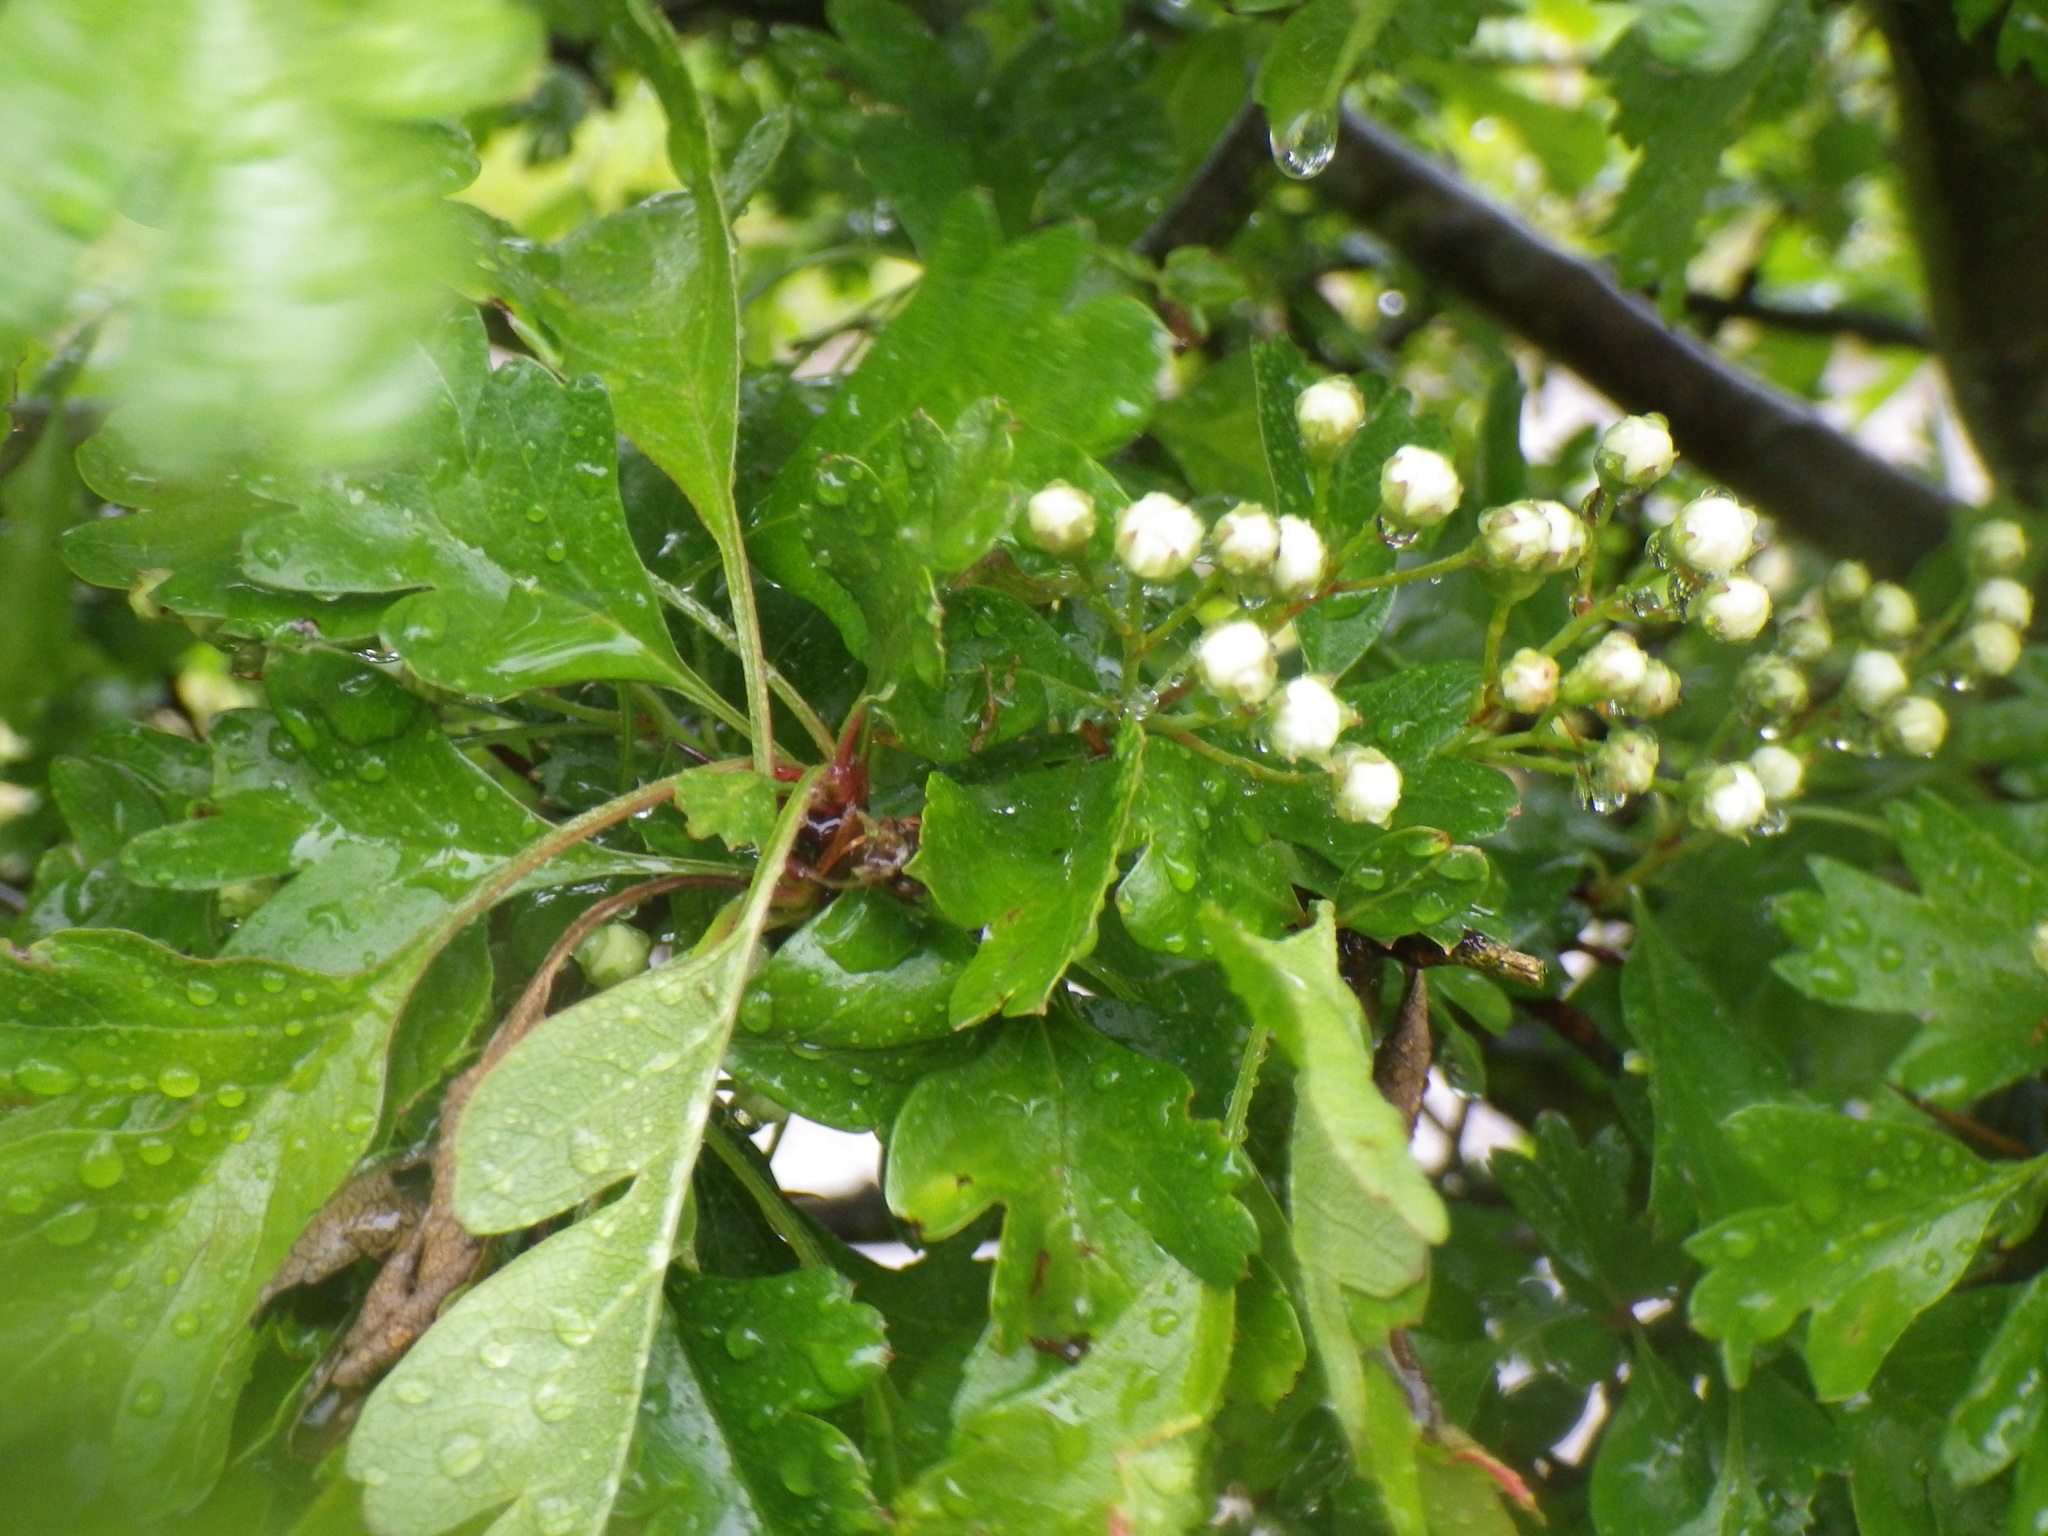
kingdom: Plantae
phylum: Tracheophyta
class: Magnoliopsida
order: Rosales
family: Rosaceae
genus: Crataegus
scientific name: Crataegus monogyna
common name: Hawthorn
